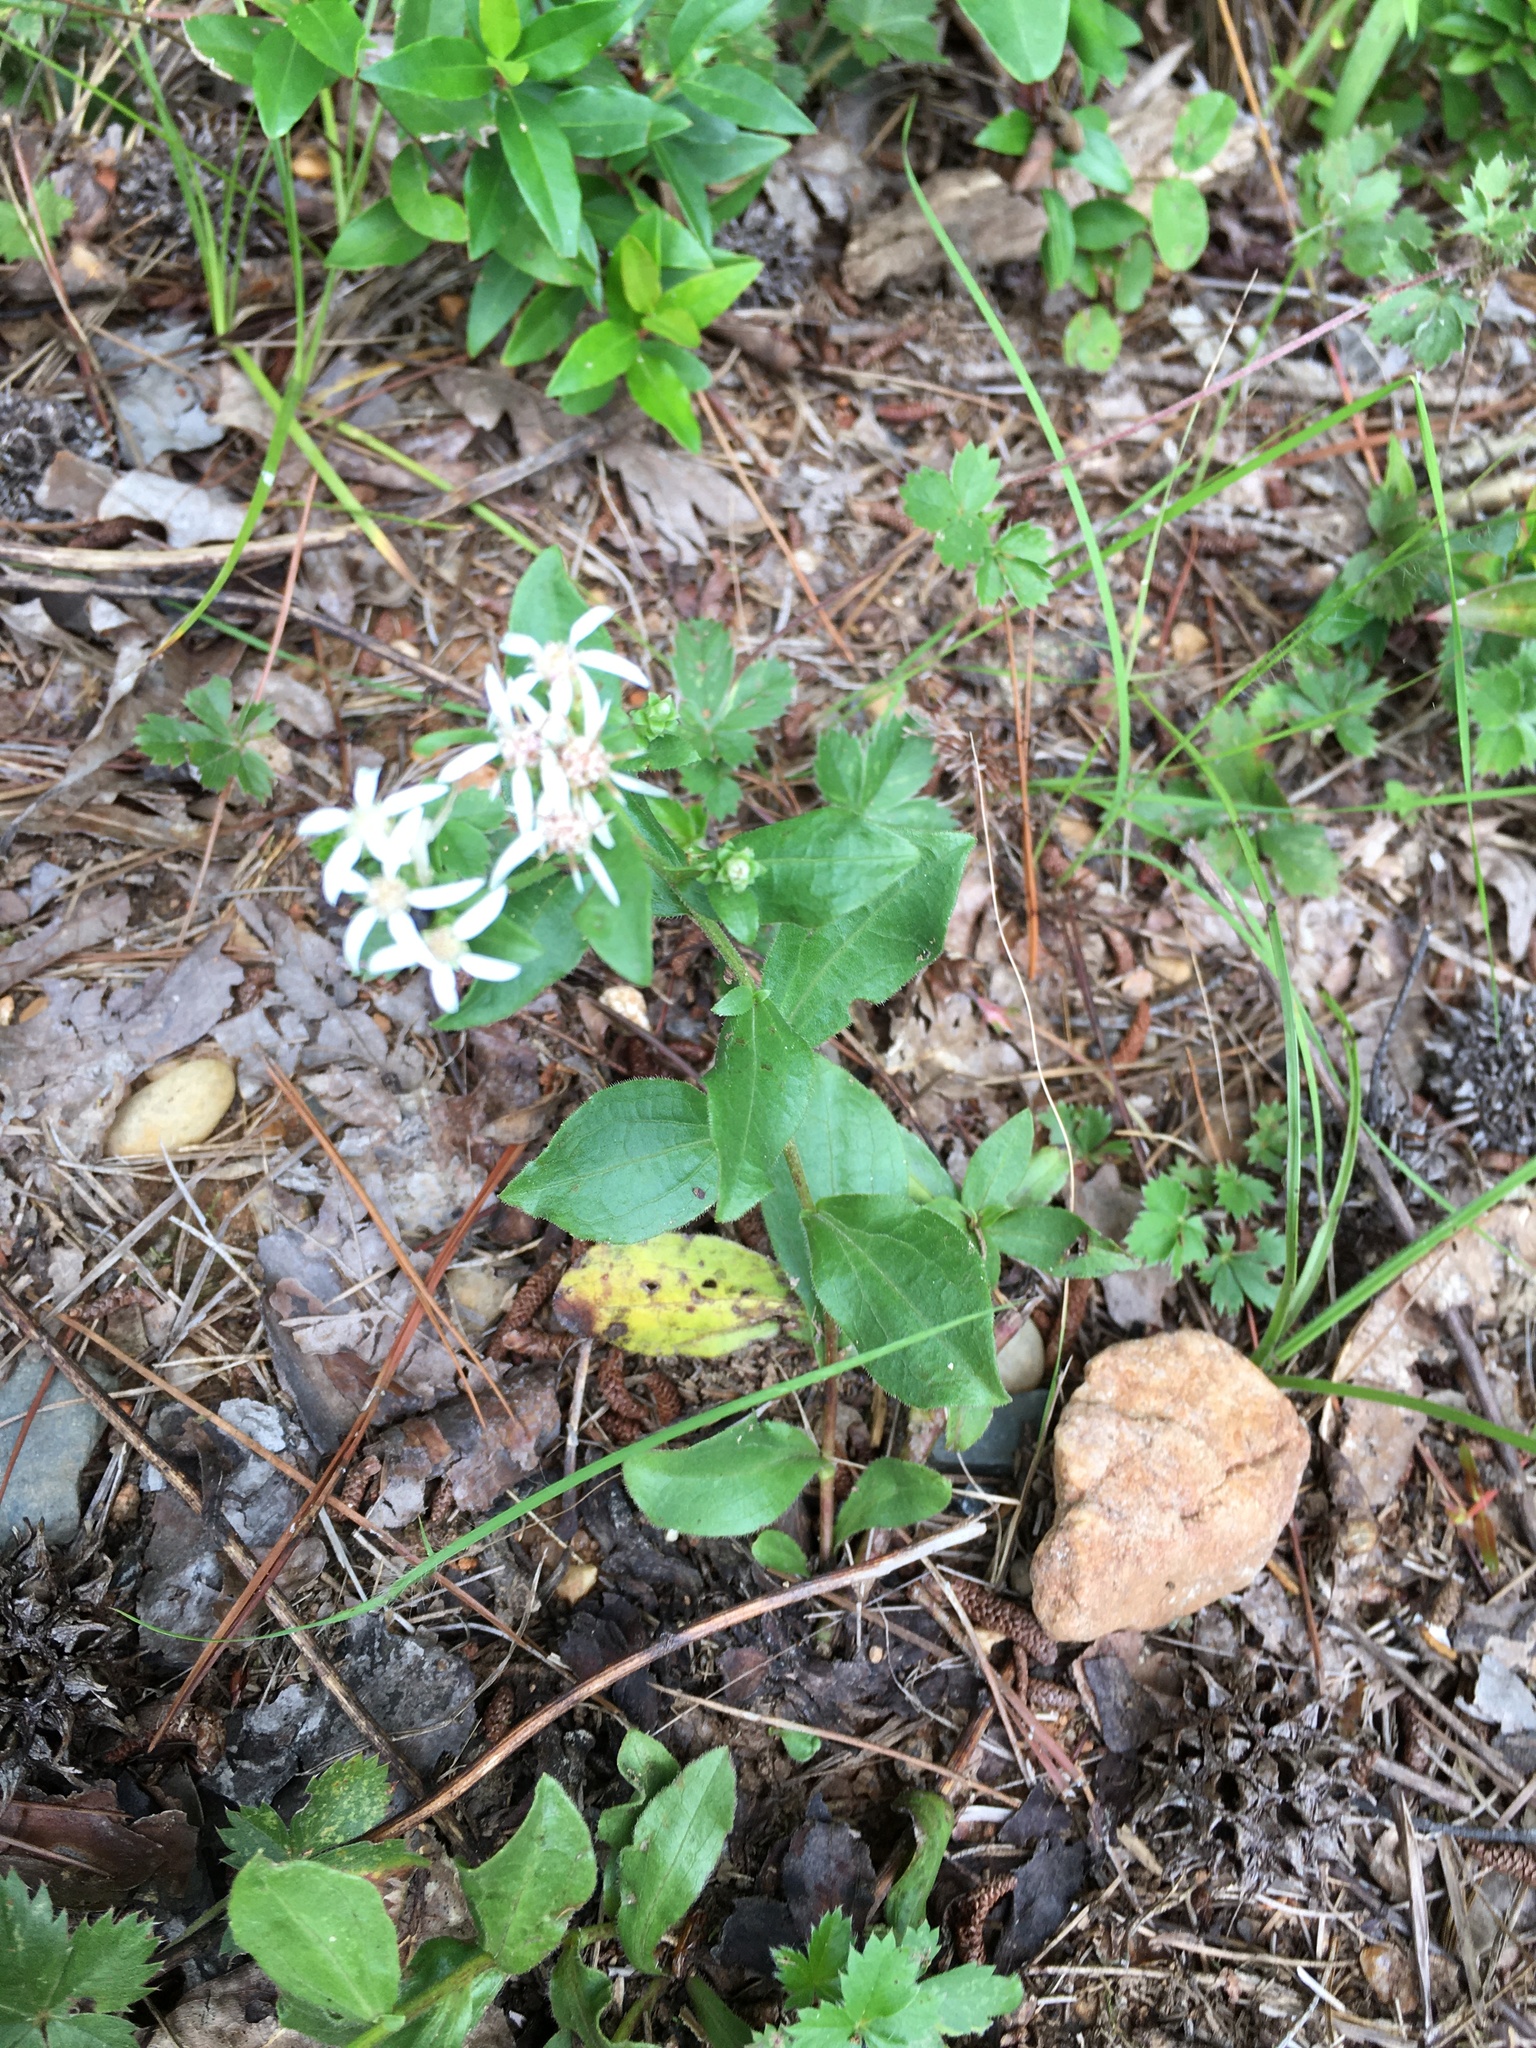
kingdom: Plantae
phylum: Tracheophyta
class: Magnoliopsida
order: Asterales
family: Asteraceae
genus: Sericocarpus
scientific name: Sericocarpus asteroides
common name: Toothed white-top aster
